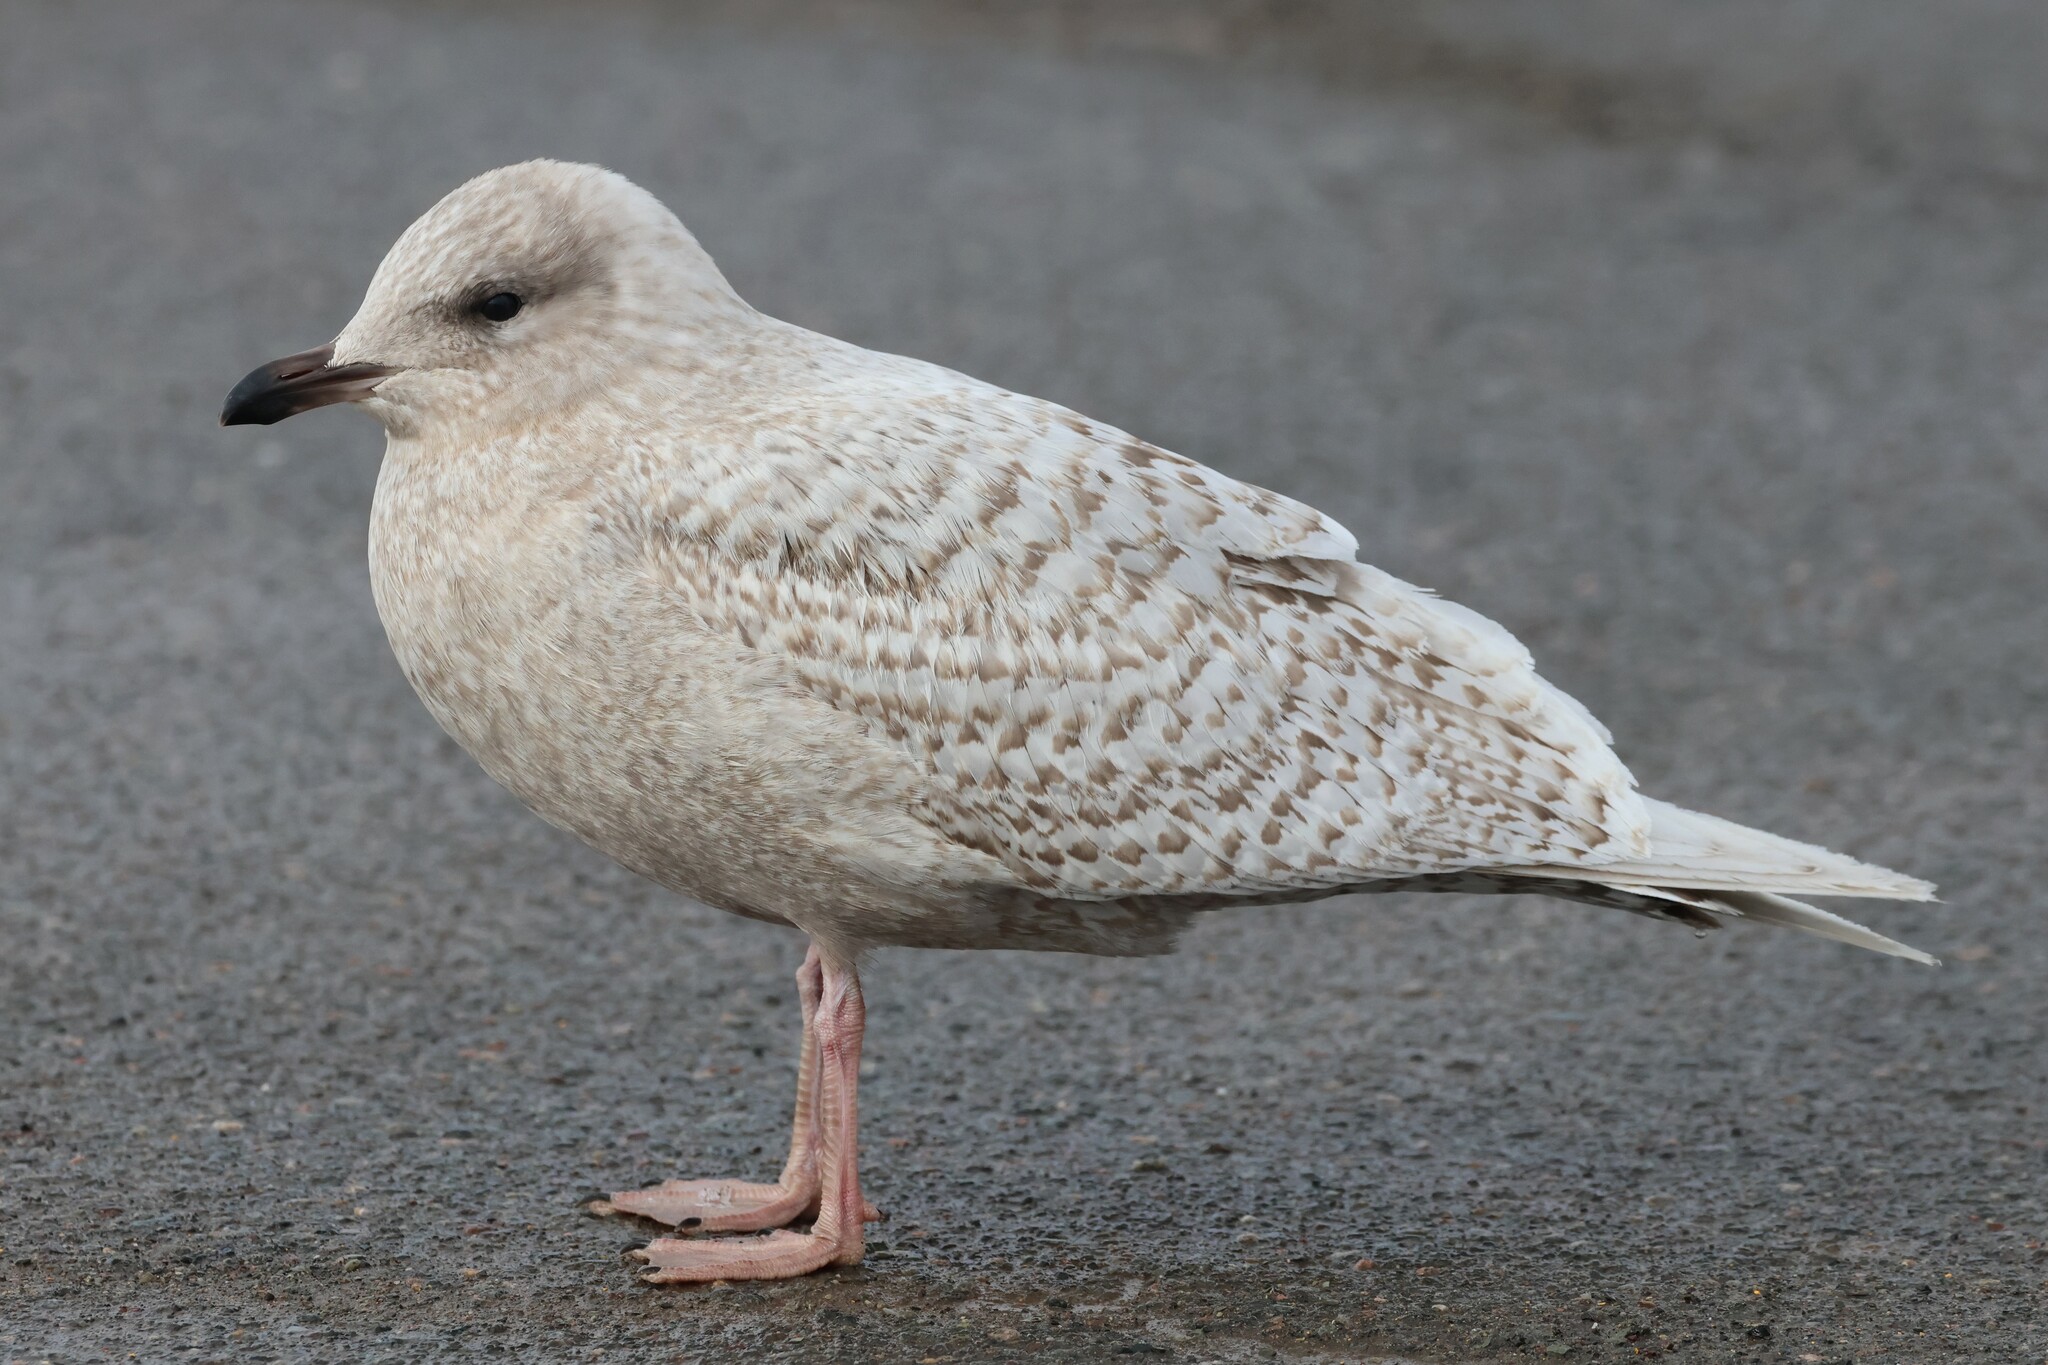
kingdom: Animalia
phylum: Chordata
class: Aves
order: Charadriiformes
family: Laridae
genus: Larus
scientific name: Larus glaucoides
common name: Iceland gull
